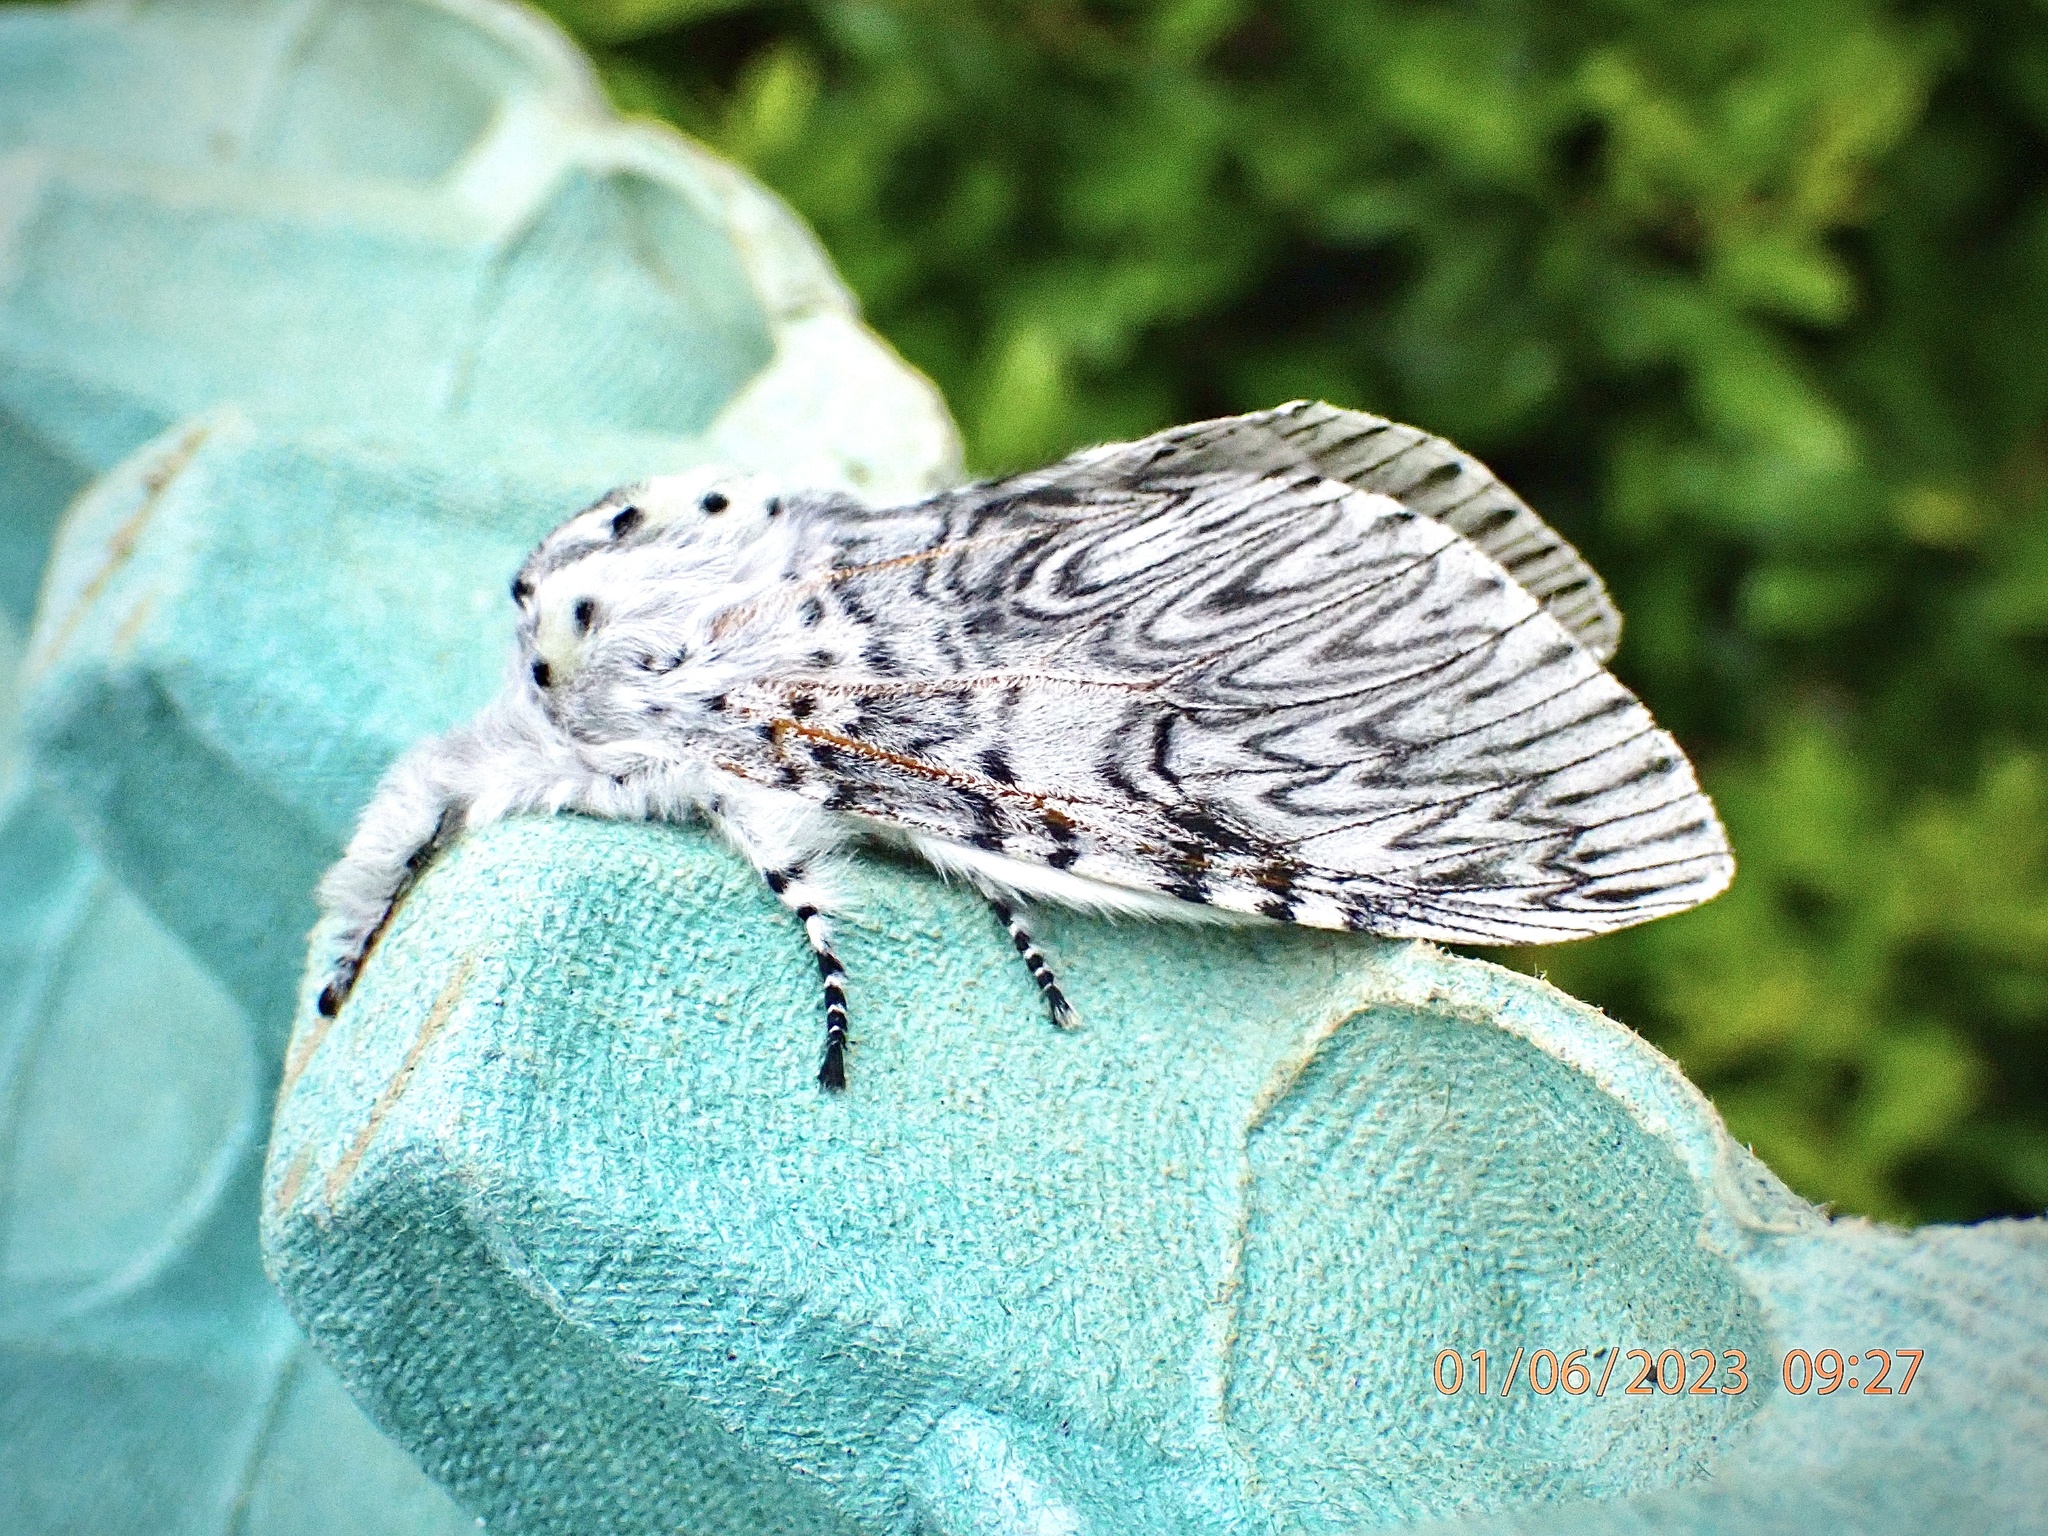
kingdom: Animalia
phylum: Arthropoda
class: Insecta
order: Lepidoptera
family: Notodontidae
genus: Cerura
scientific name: Cerura vinula
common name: Puss moth
